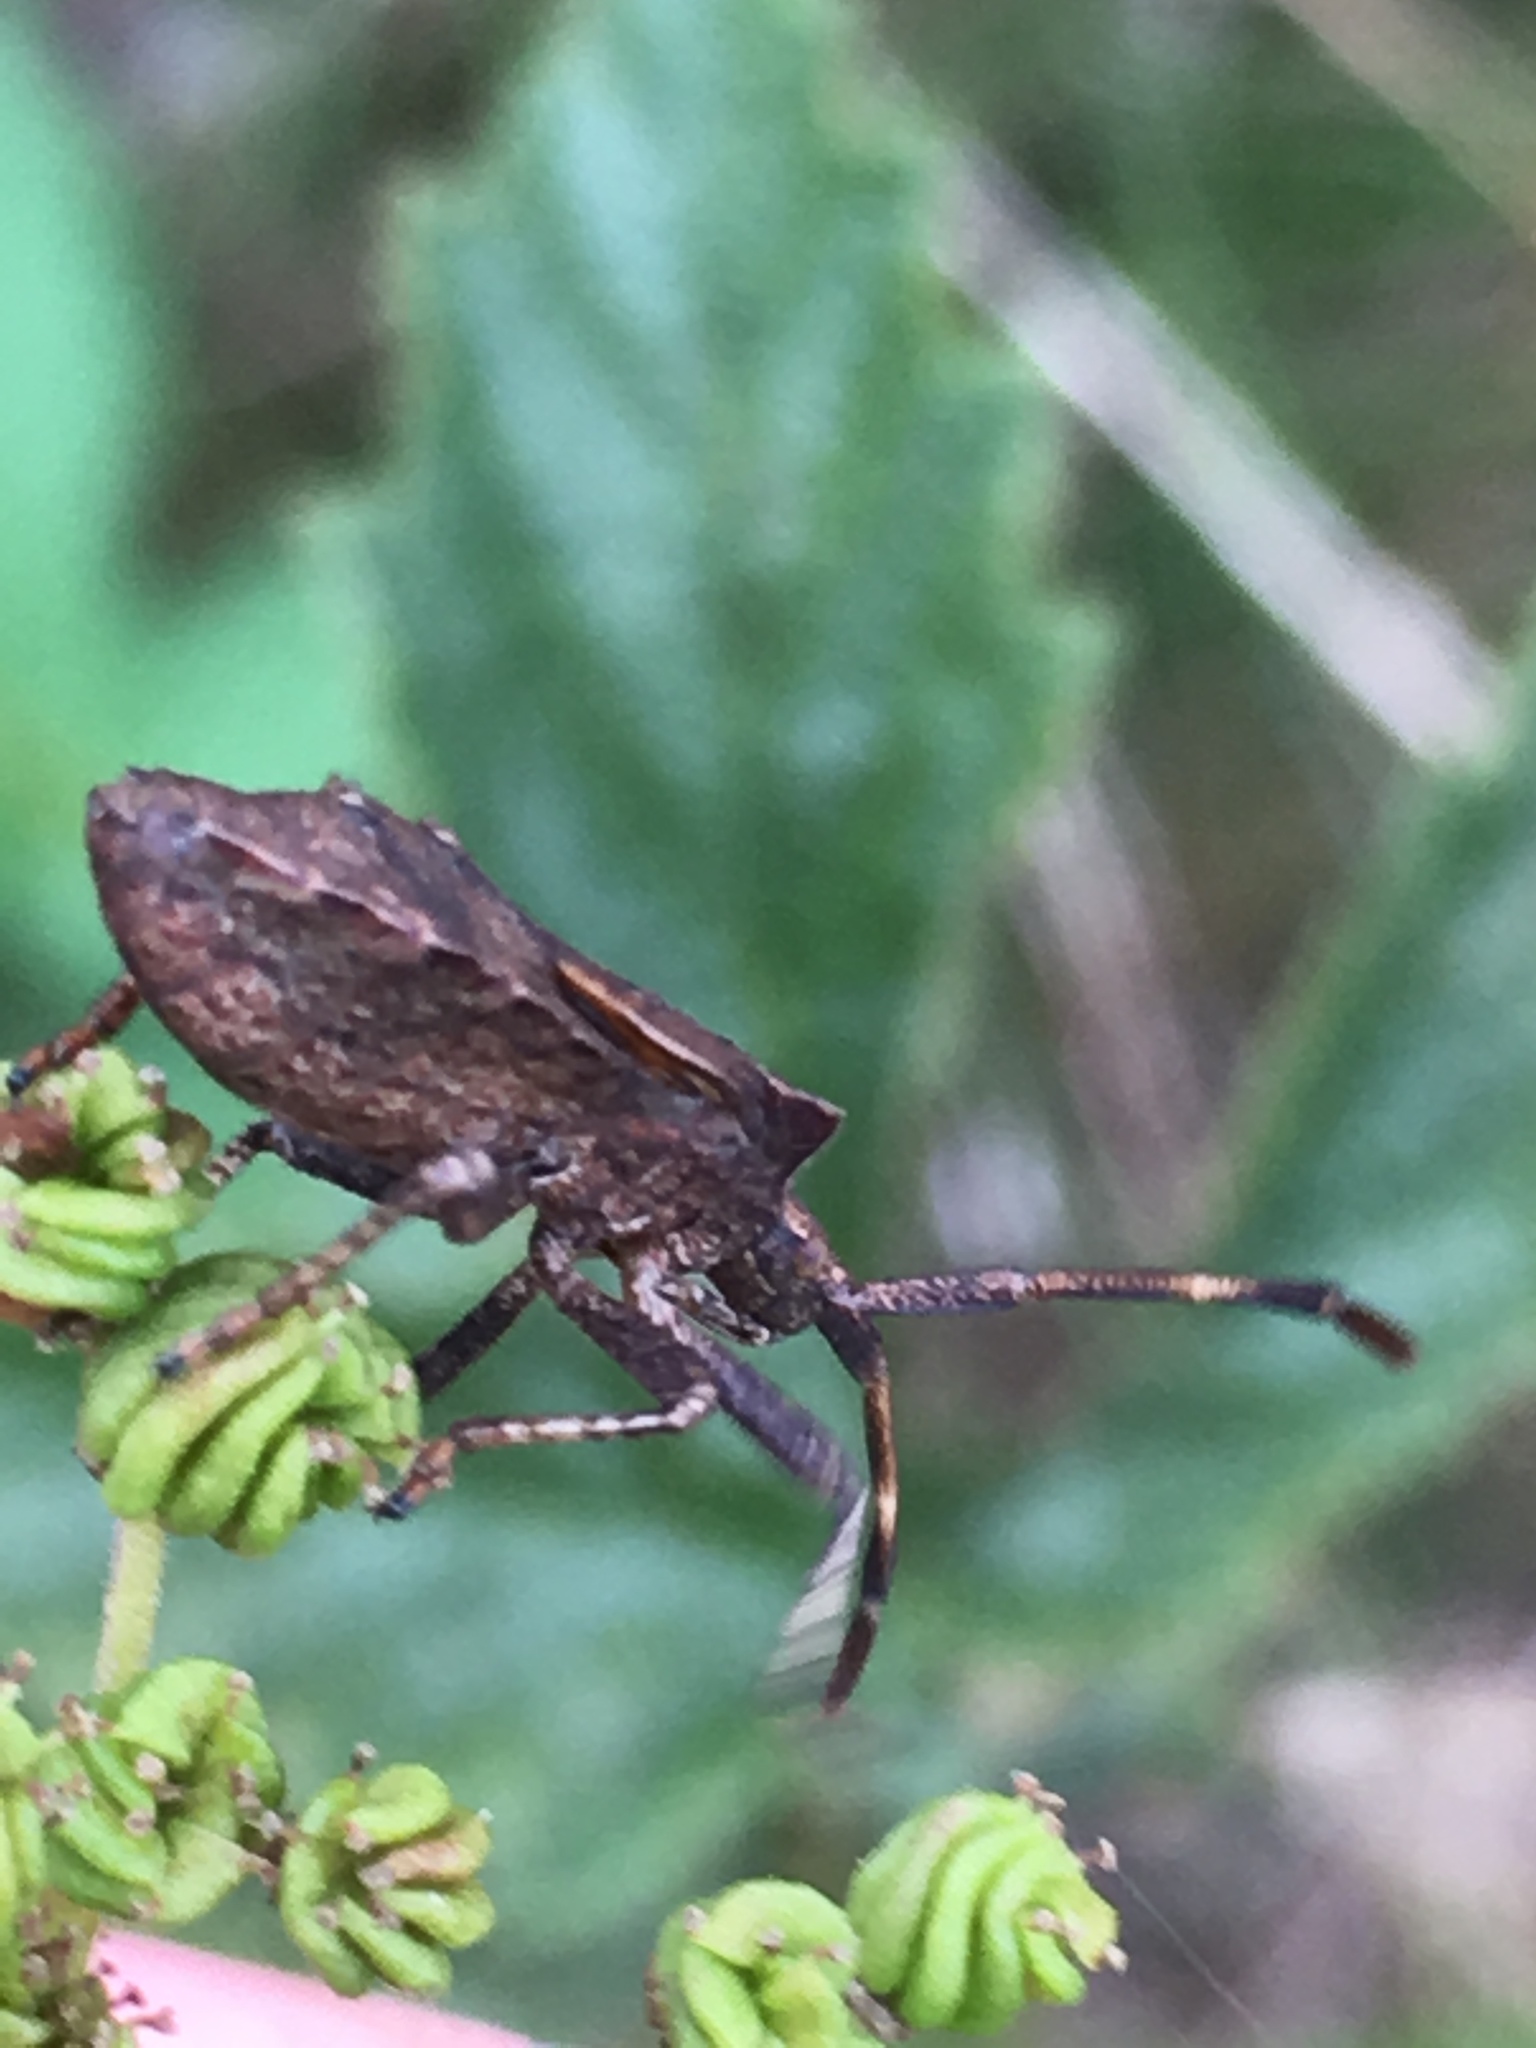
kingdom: Animalia
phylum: Arthropoda
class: Insecta
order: Hemiptera
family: Coreidae
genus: Coreus
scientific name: Coreus marginatus
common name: Dock bug
